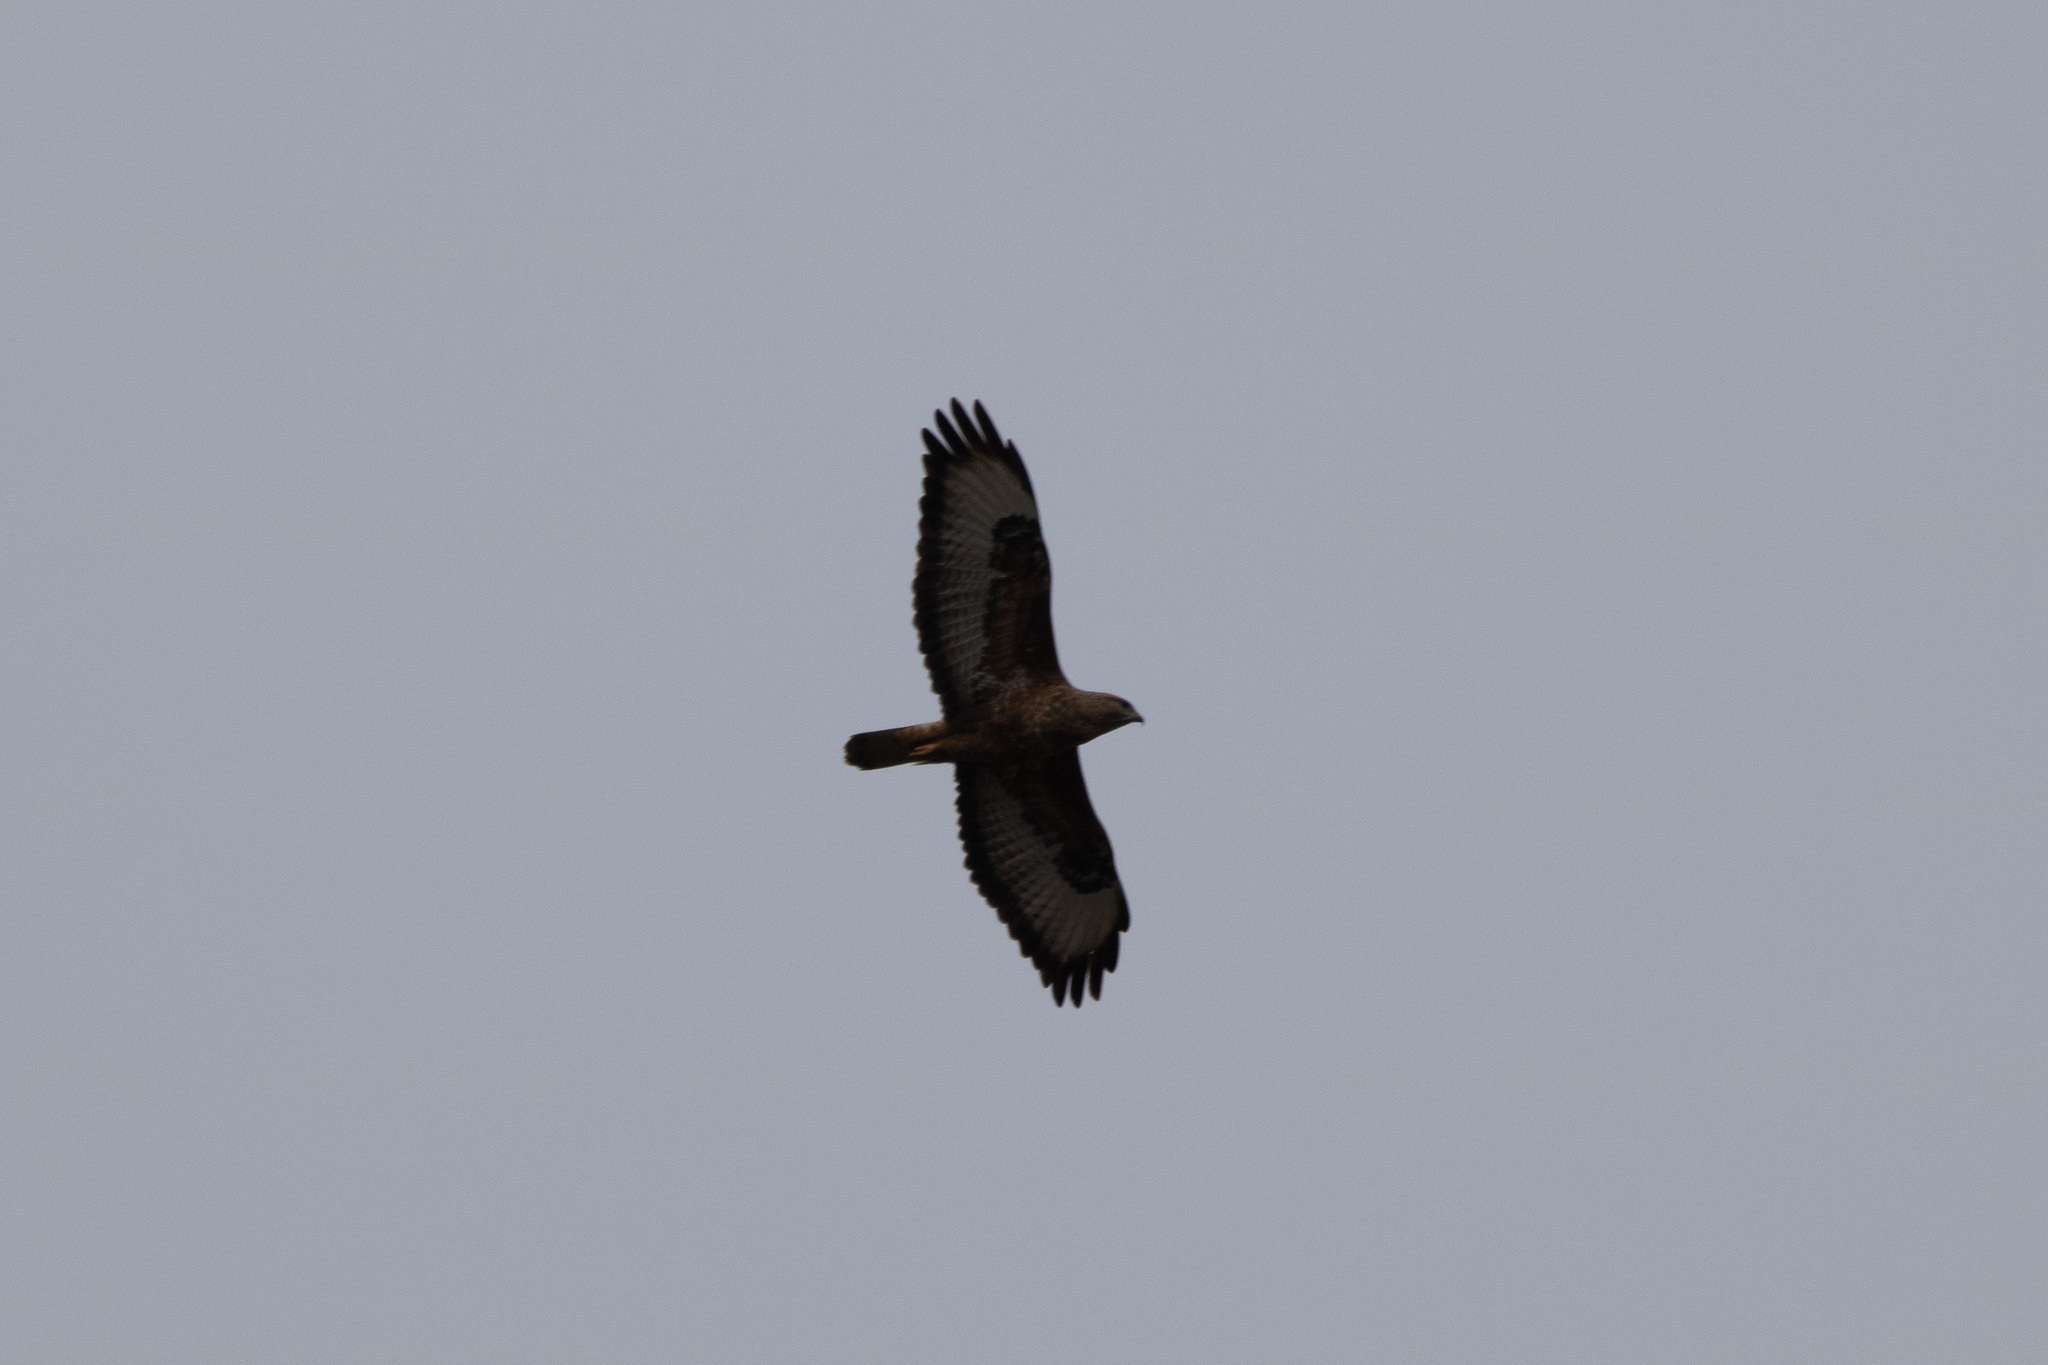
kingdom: Animalia
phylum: Chordata
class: Aves
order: Accipitriformes
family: Accipitridae
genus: Buteo
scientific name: Buteo buteo
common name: Common buzzard
